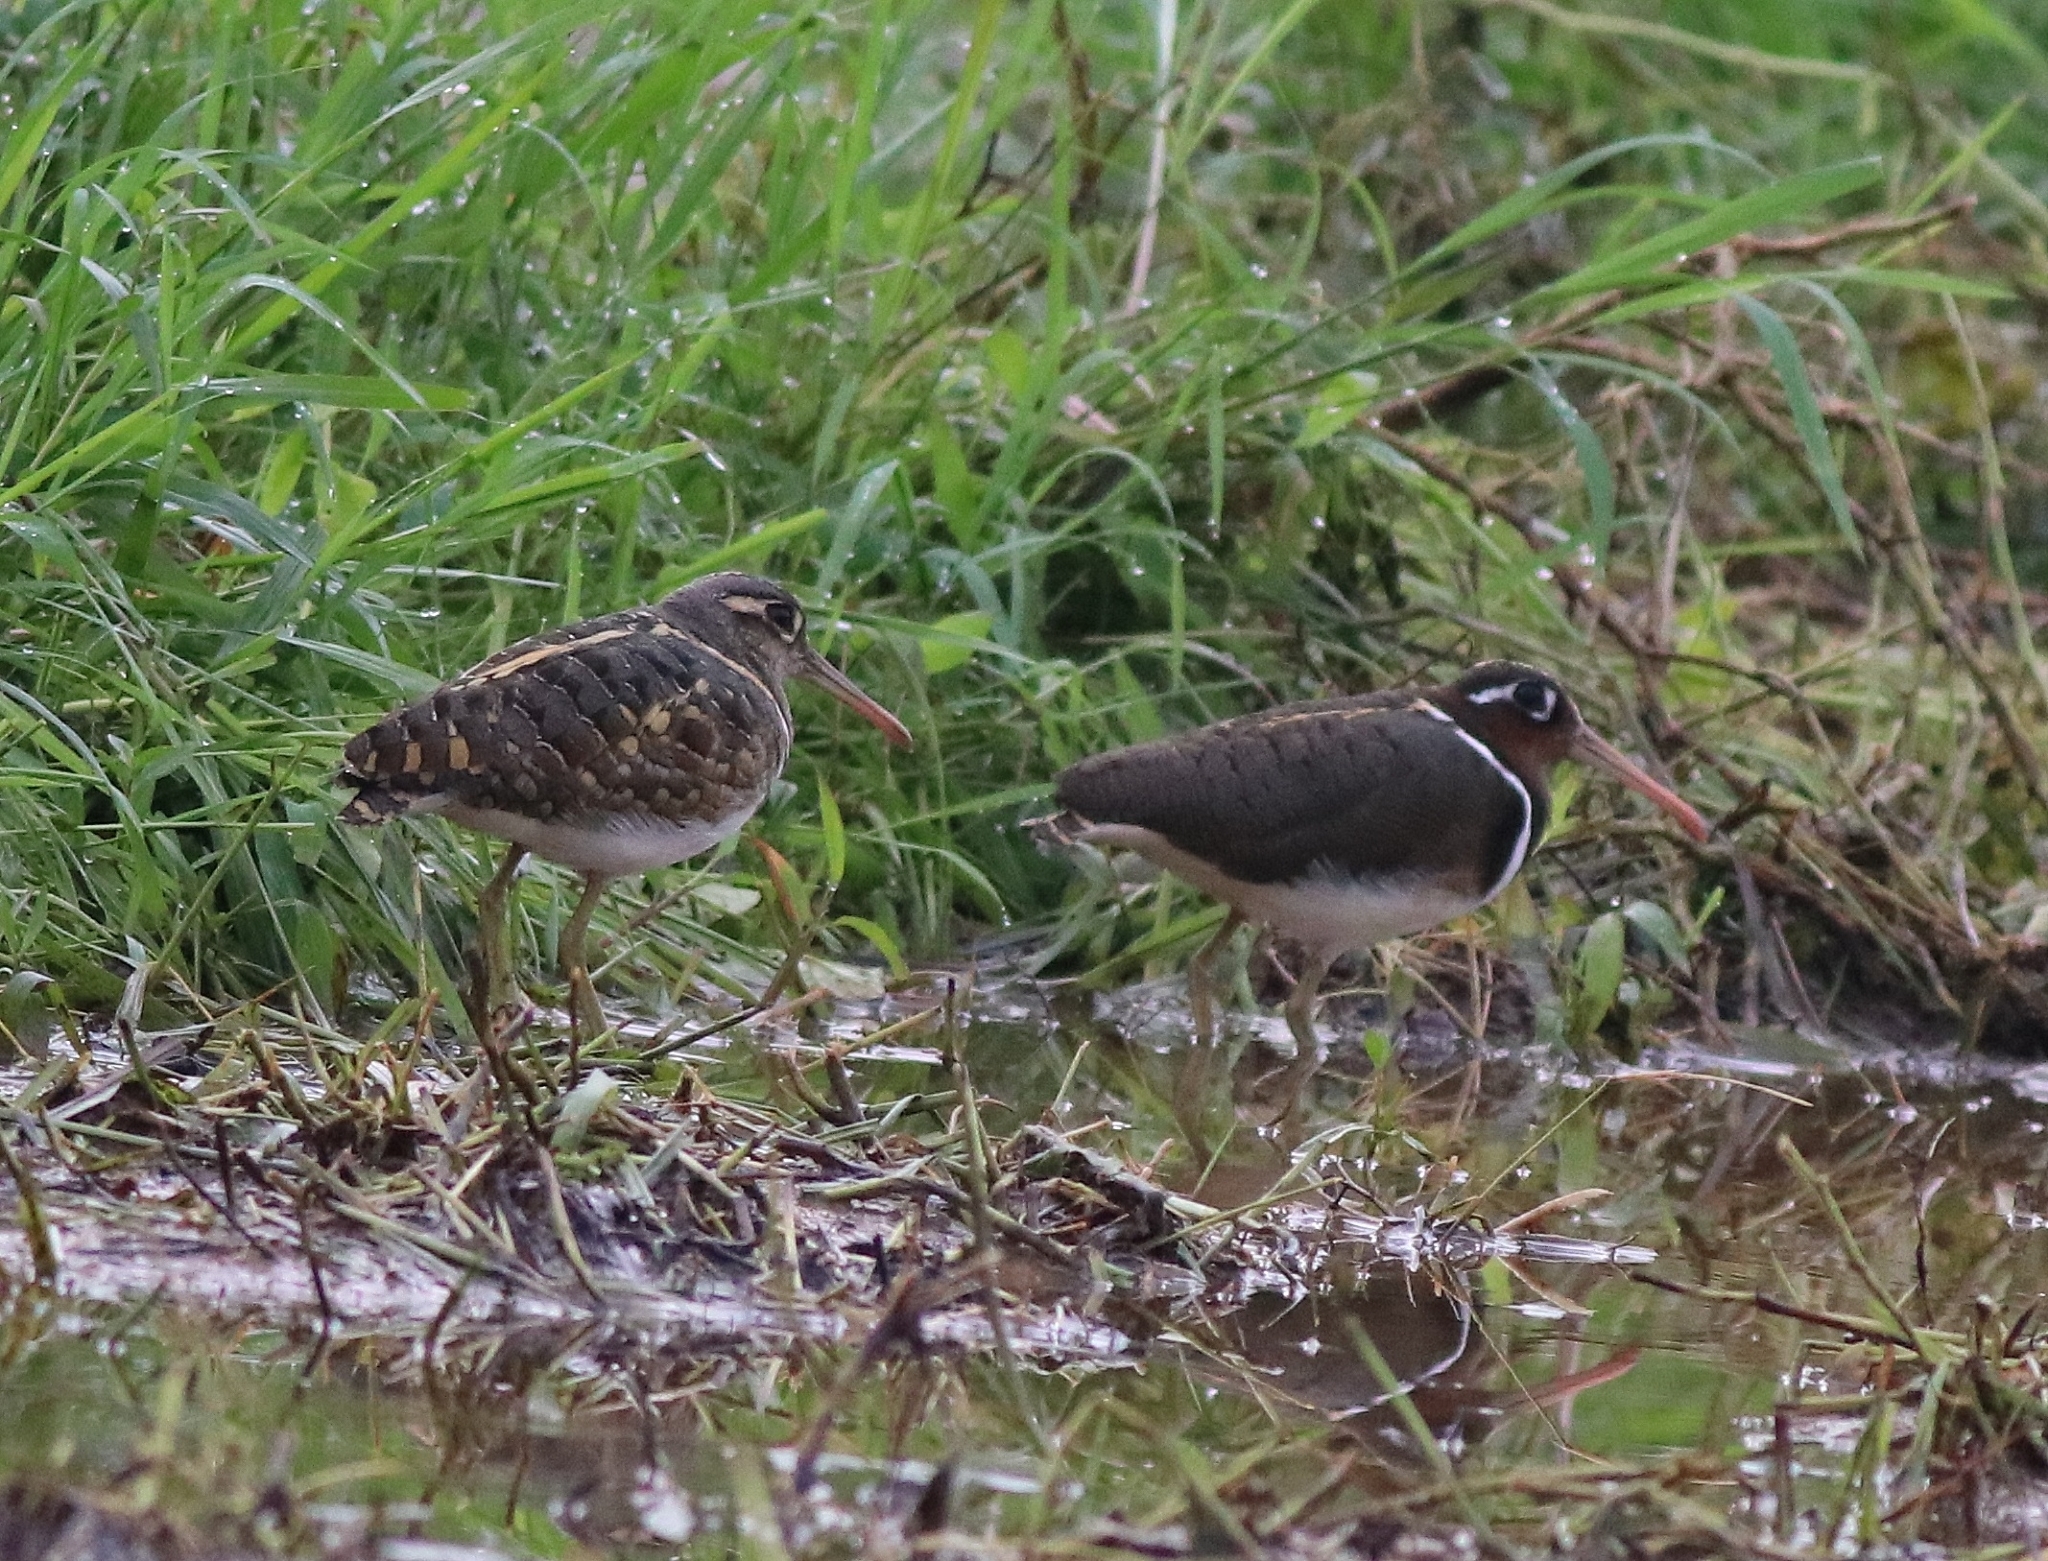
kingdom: Animalia
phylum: Chordata
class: Aves
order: Charadriiformes
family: Rostratulidae
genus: Rostratula
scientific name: Rostratula benghalensis
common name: Greater painted-snipe
